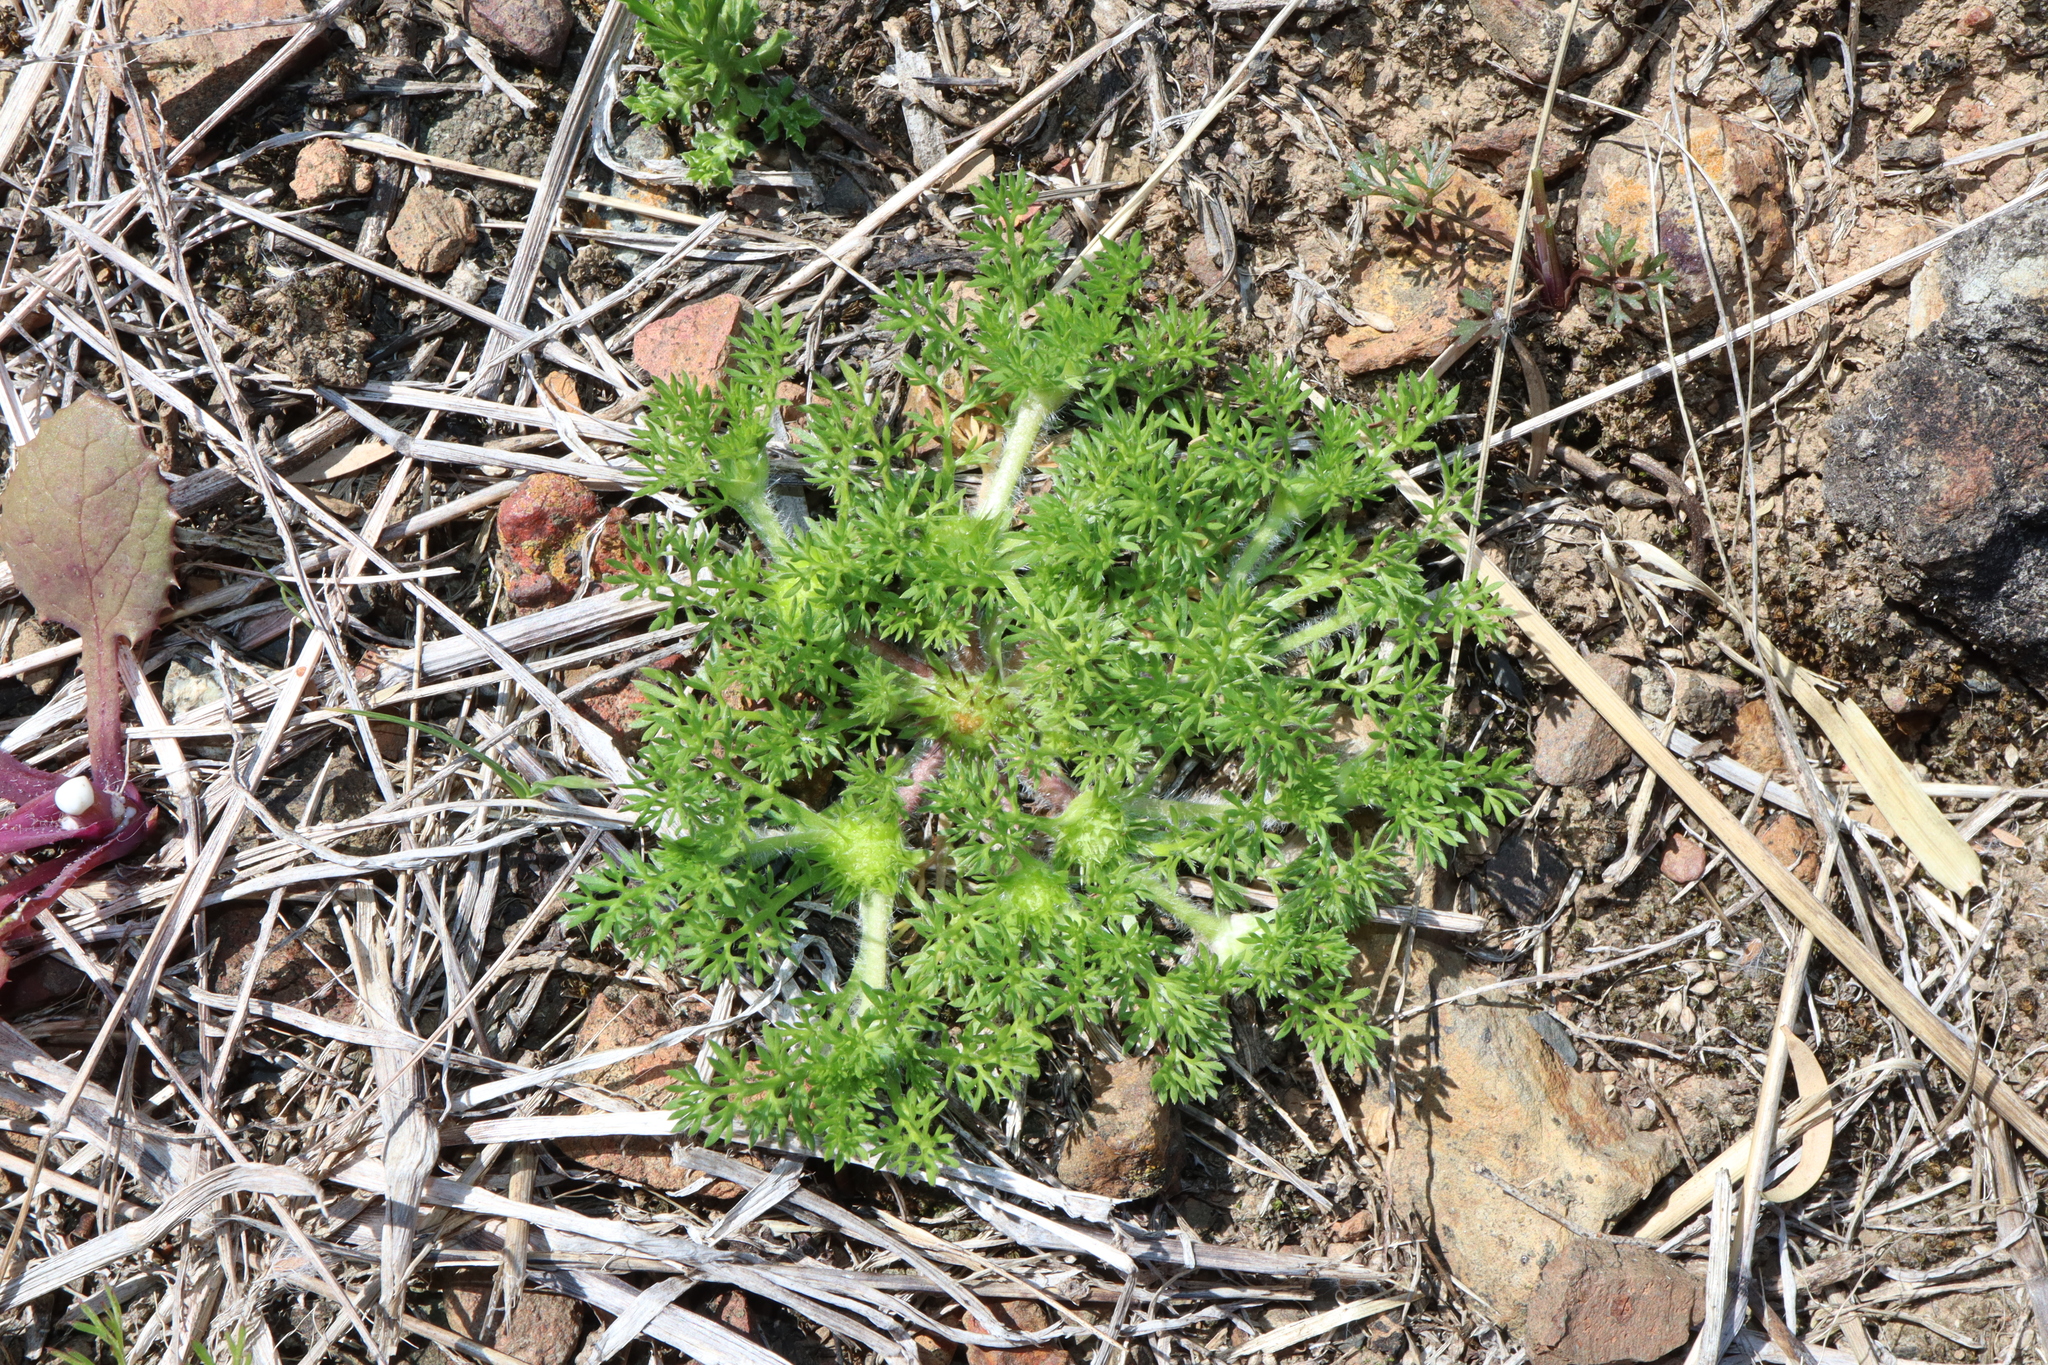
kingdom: Plantae
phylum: Tracheophyta
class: Magnoliopsida
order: Asterales
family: Asteraceae
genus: Soliva
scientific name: Soliva sessilis
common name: Field burrweed
